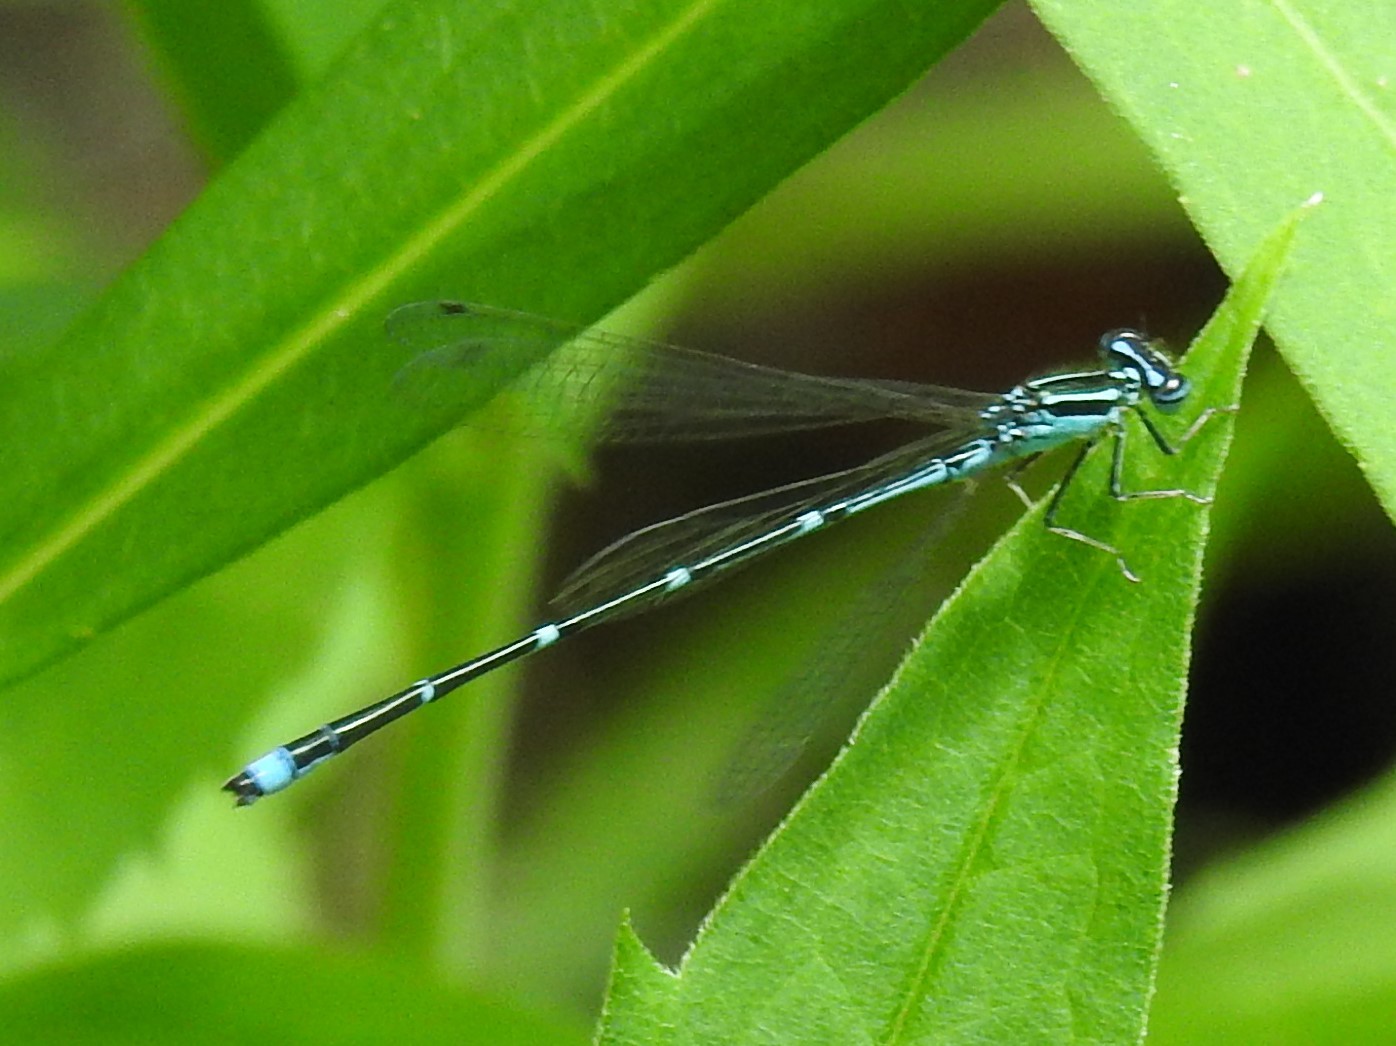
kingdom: Animalia
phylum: Arthropoda
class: Insecta
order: Odonata
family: Coenagrionidae
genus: Enallagma
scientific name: Enallagma exsulans
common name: Stream bluet
